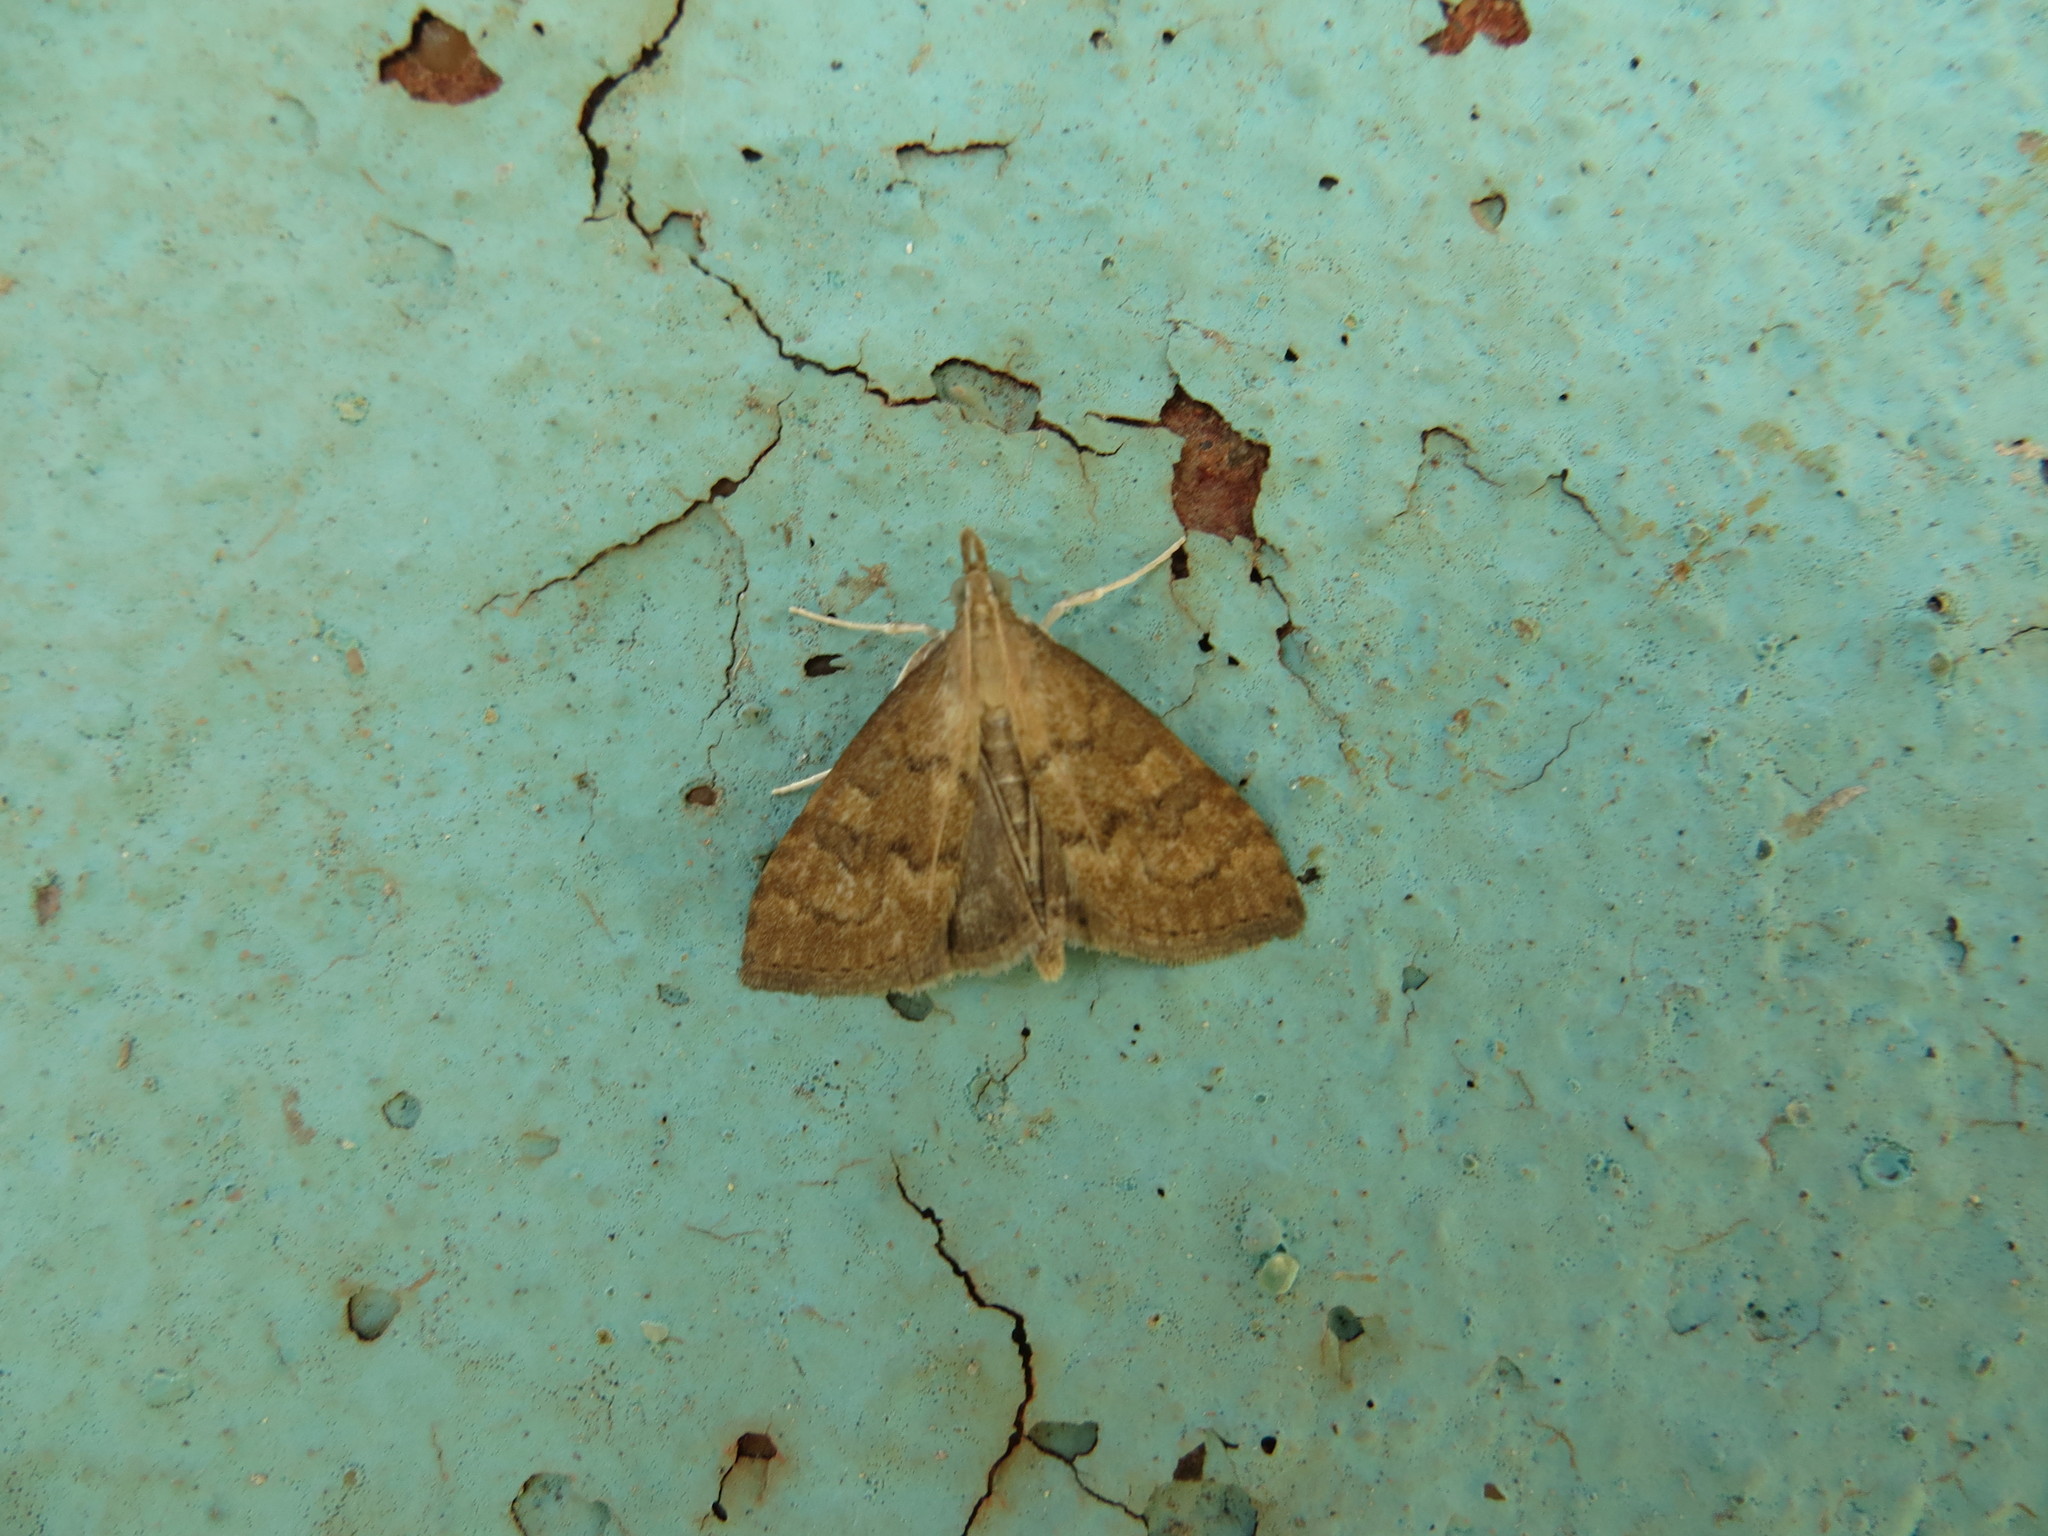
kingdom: Animalia
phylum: Arthropoda
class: Insecta
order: Lepidoptera
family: Crambidae
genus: Udea
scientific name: Udea fulvalis
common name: Fulvous pearl
